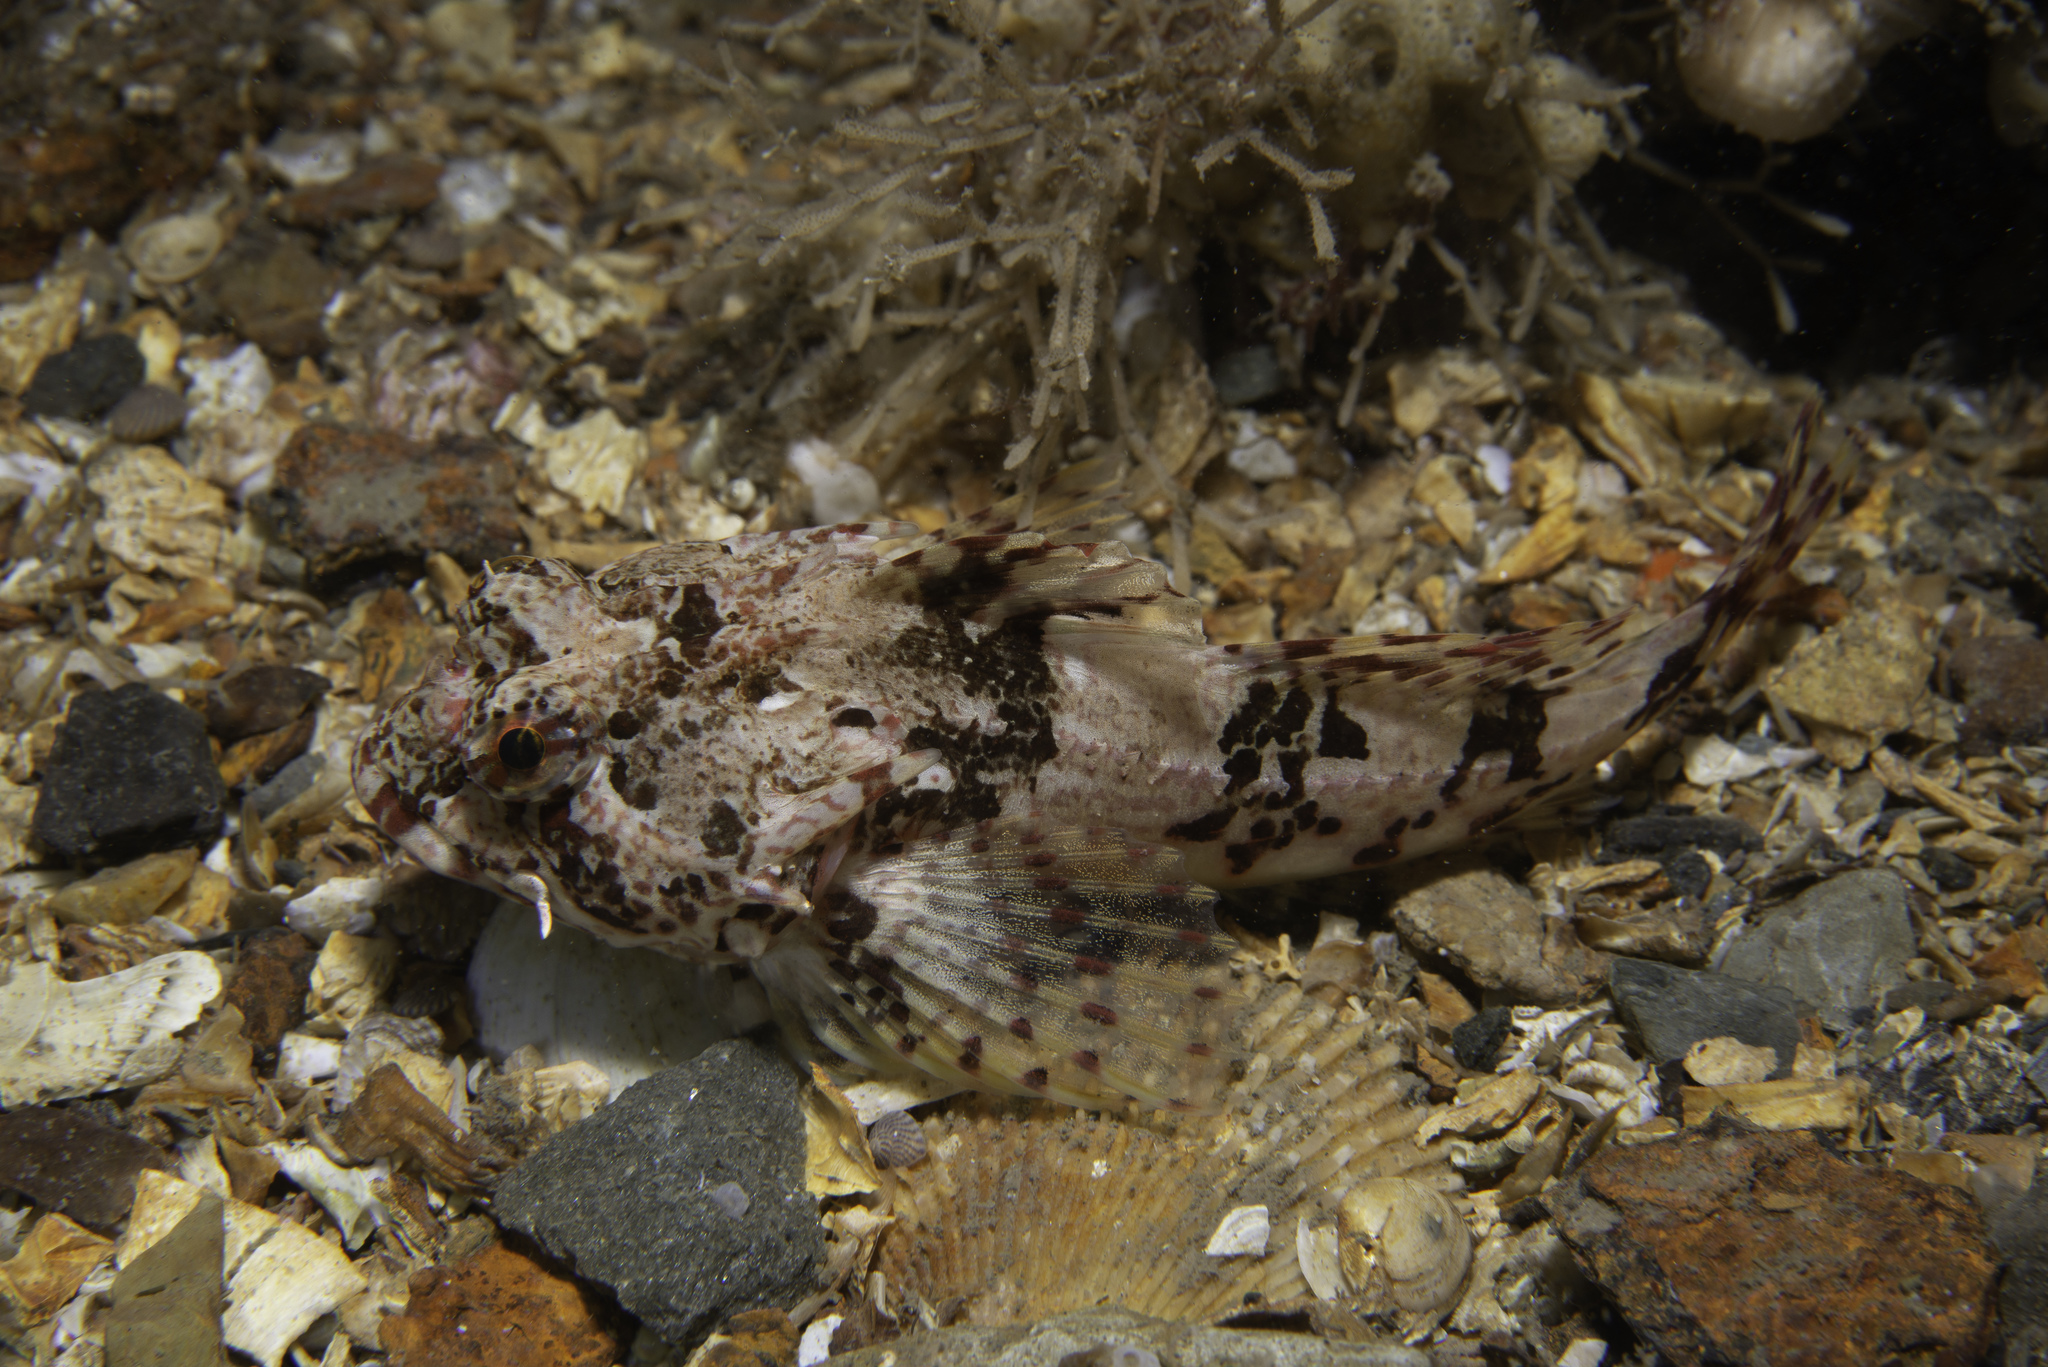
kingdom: Animalia
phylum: Chordata
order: Scorpaeniformes
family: Cottidae
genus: Taurulus
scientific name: Taurulus bubalis
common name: Sea scorpion
